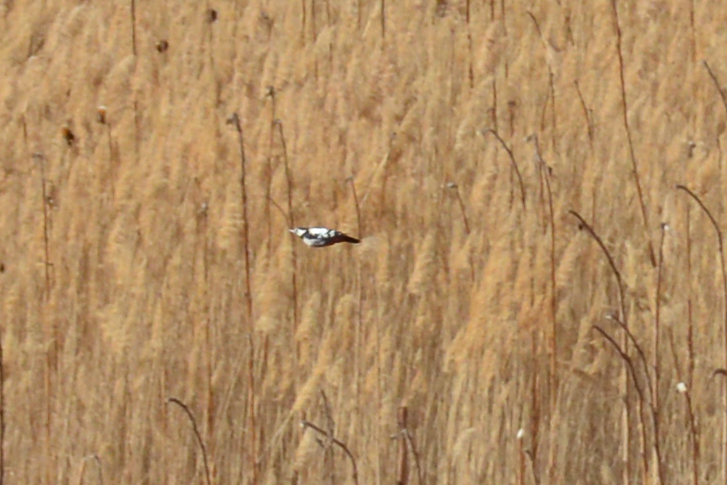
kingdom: Animalia
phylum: Chordata
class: Aves
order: Piciformes
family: Picidae
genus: Dendrocopos
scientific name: Dendrocopos syriacus
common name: Syrian woodpecker
